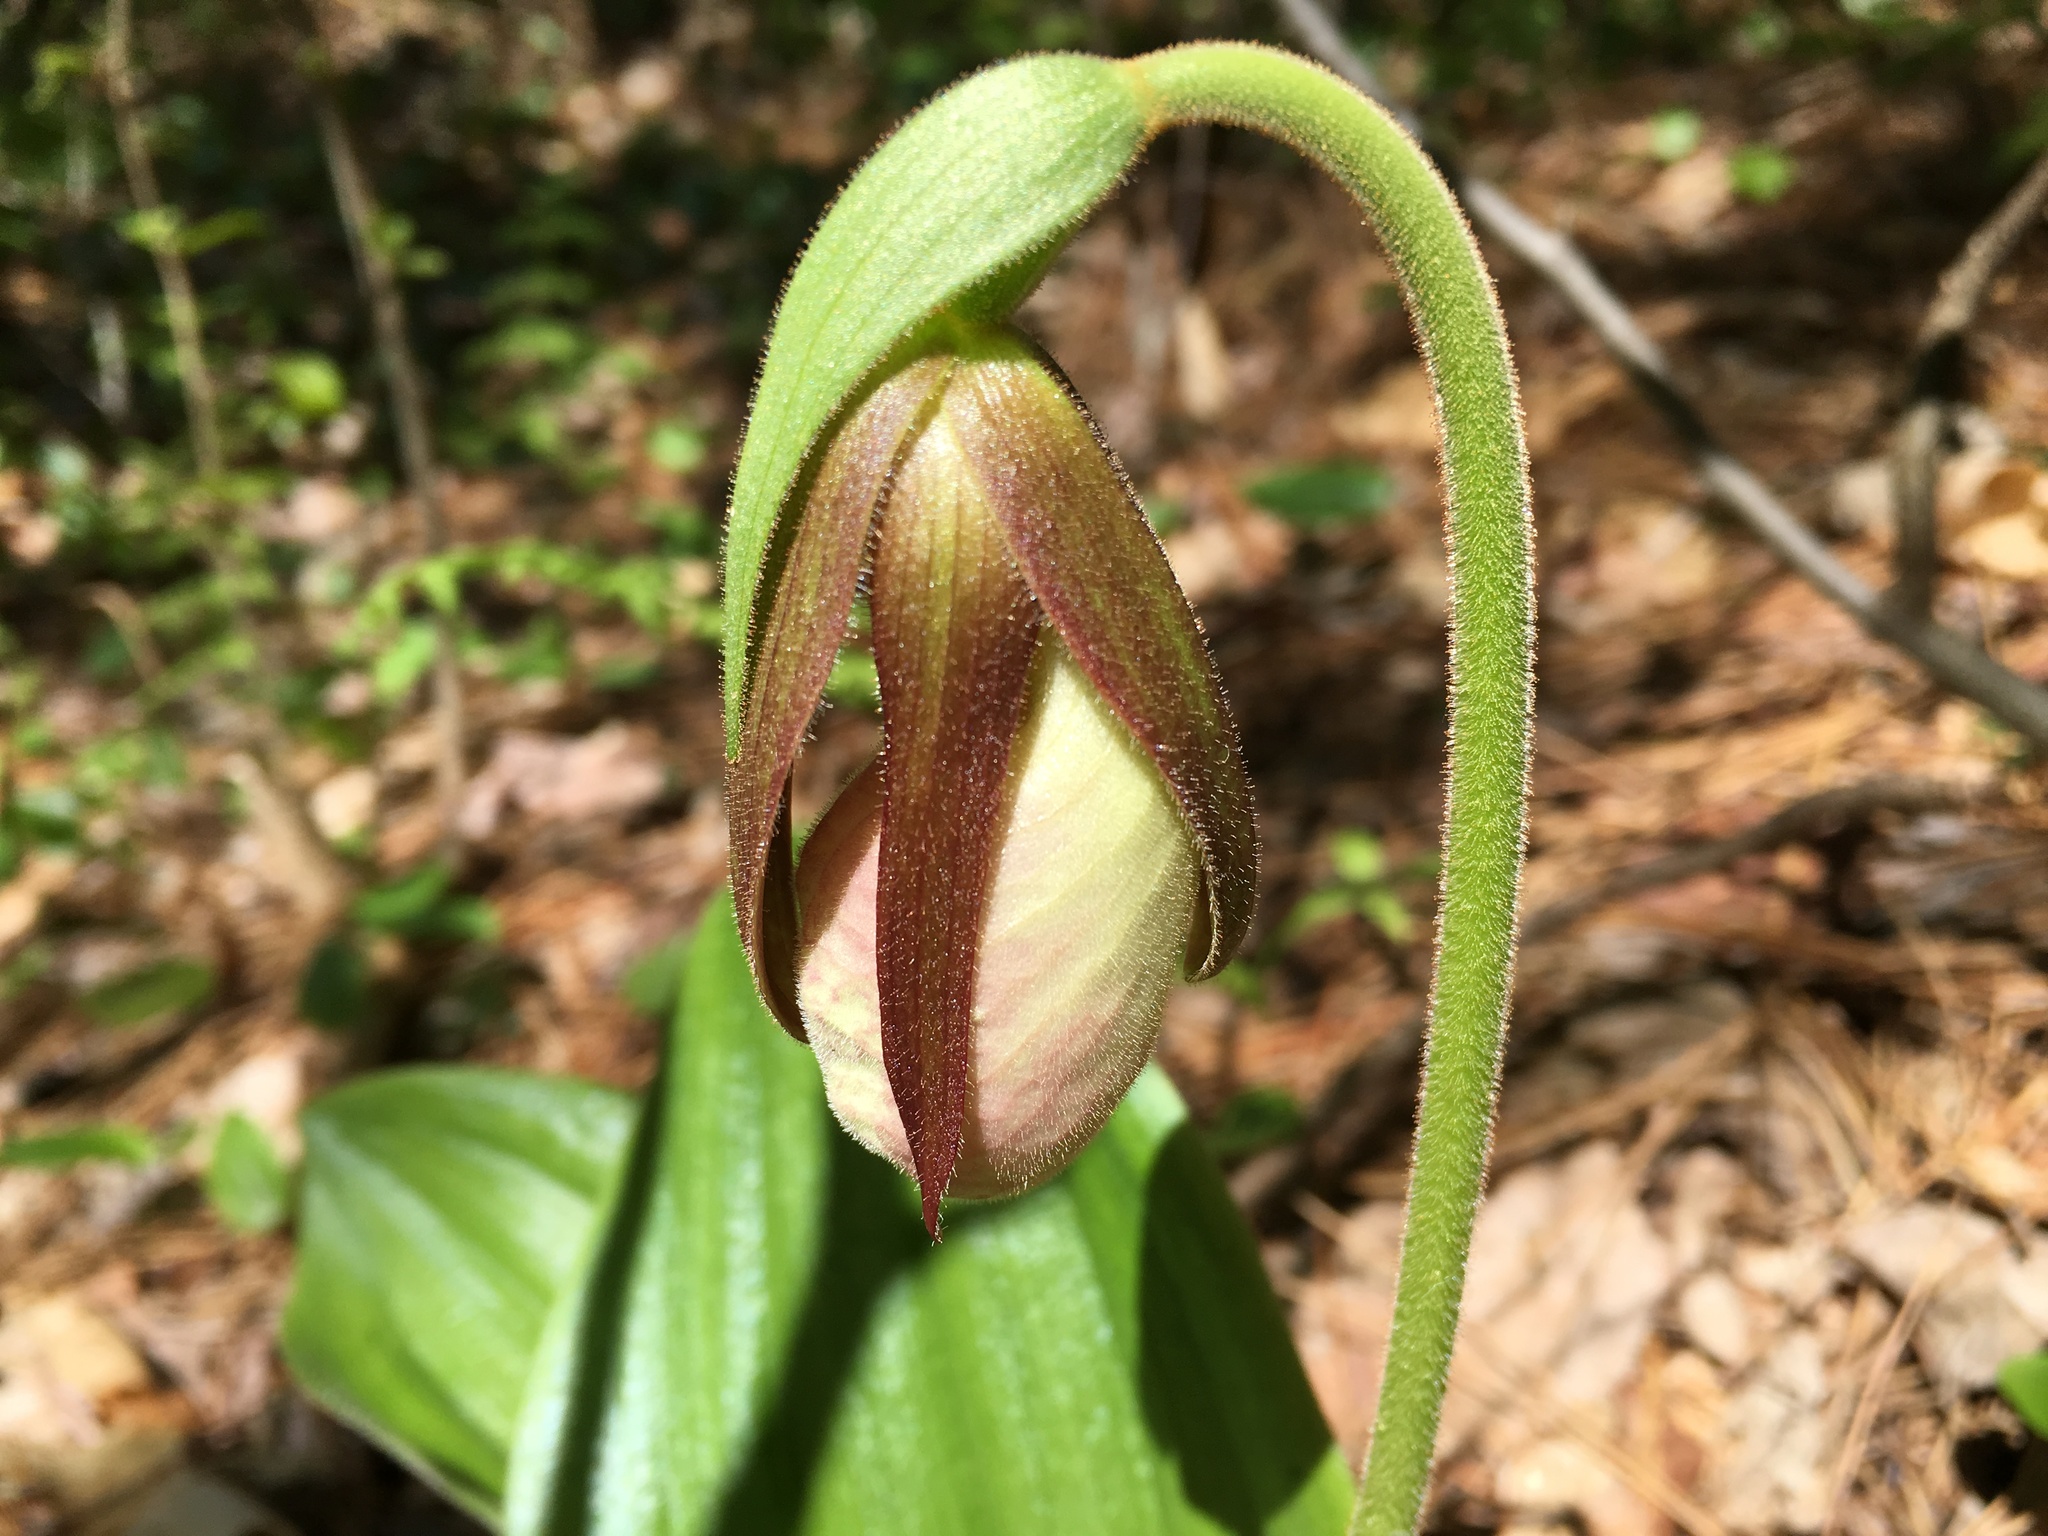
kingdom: Plantae
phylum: Tracheophyta
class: Liliopsida
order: Asparagales
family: Orchidaceae
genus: Cypripedium
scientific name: Cypripedium acaule
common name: Pink lady's-slipper
